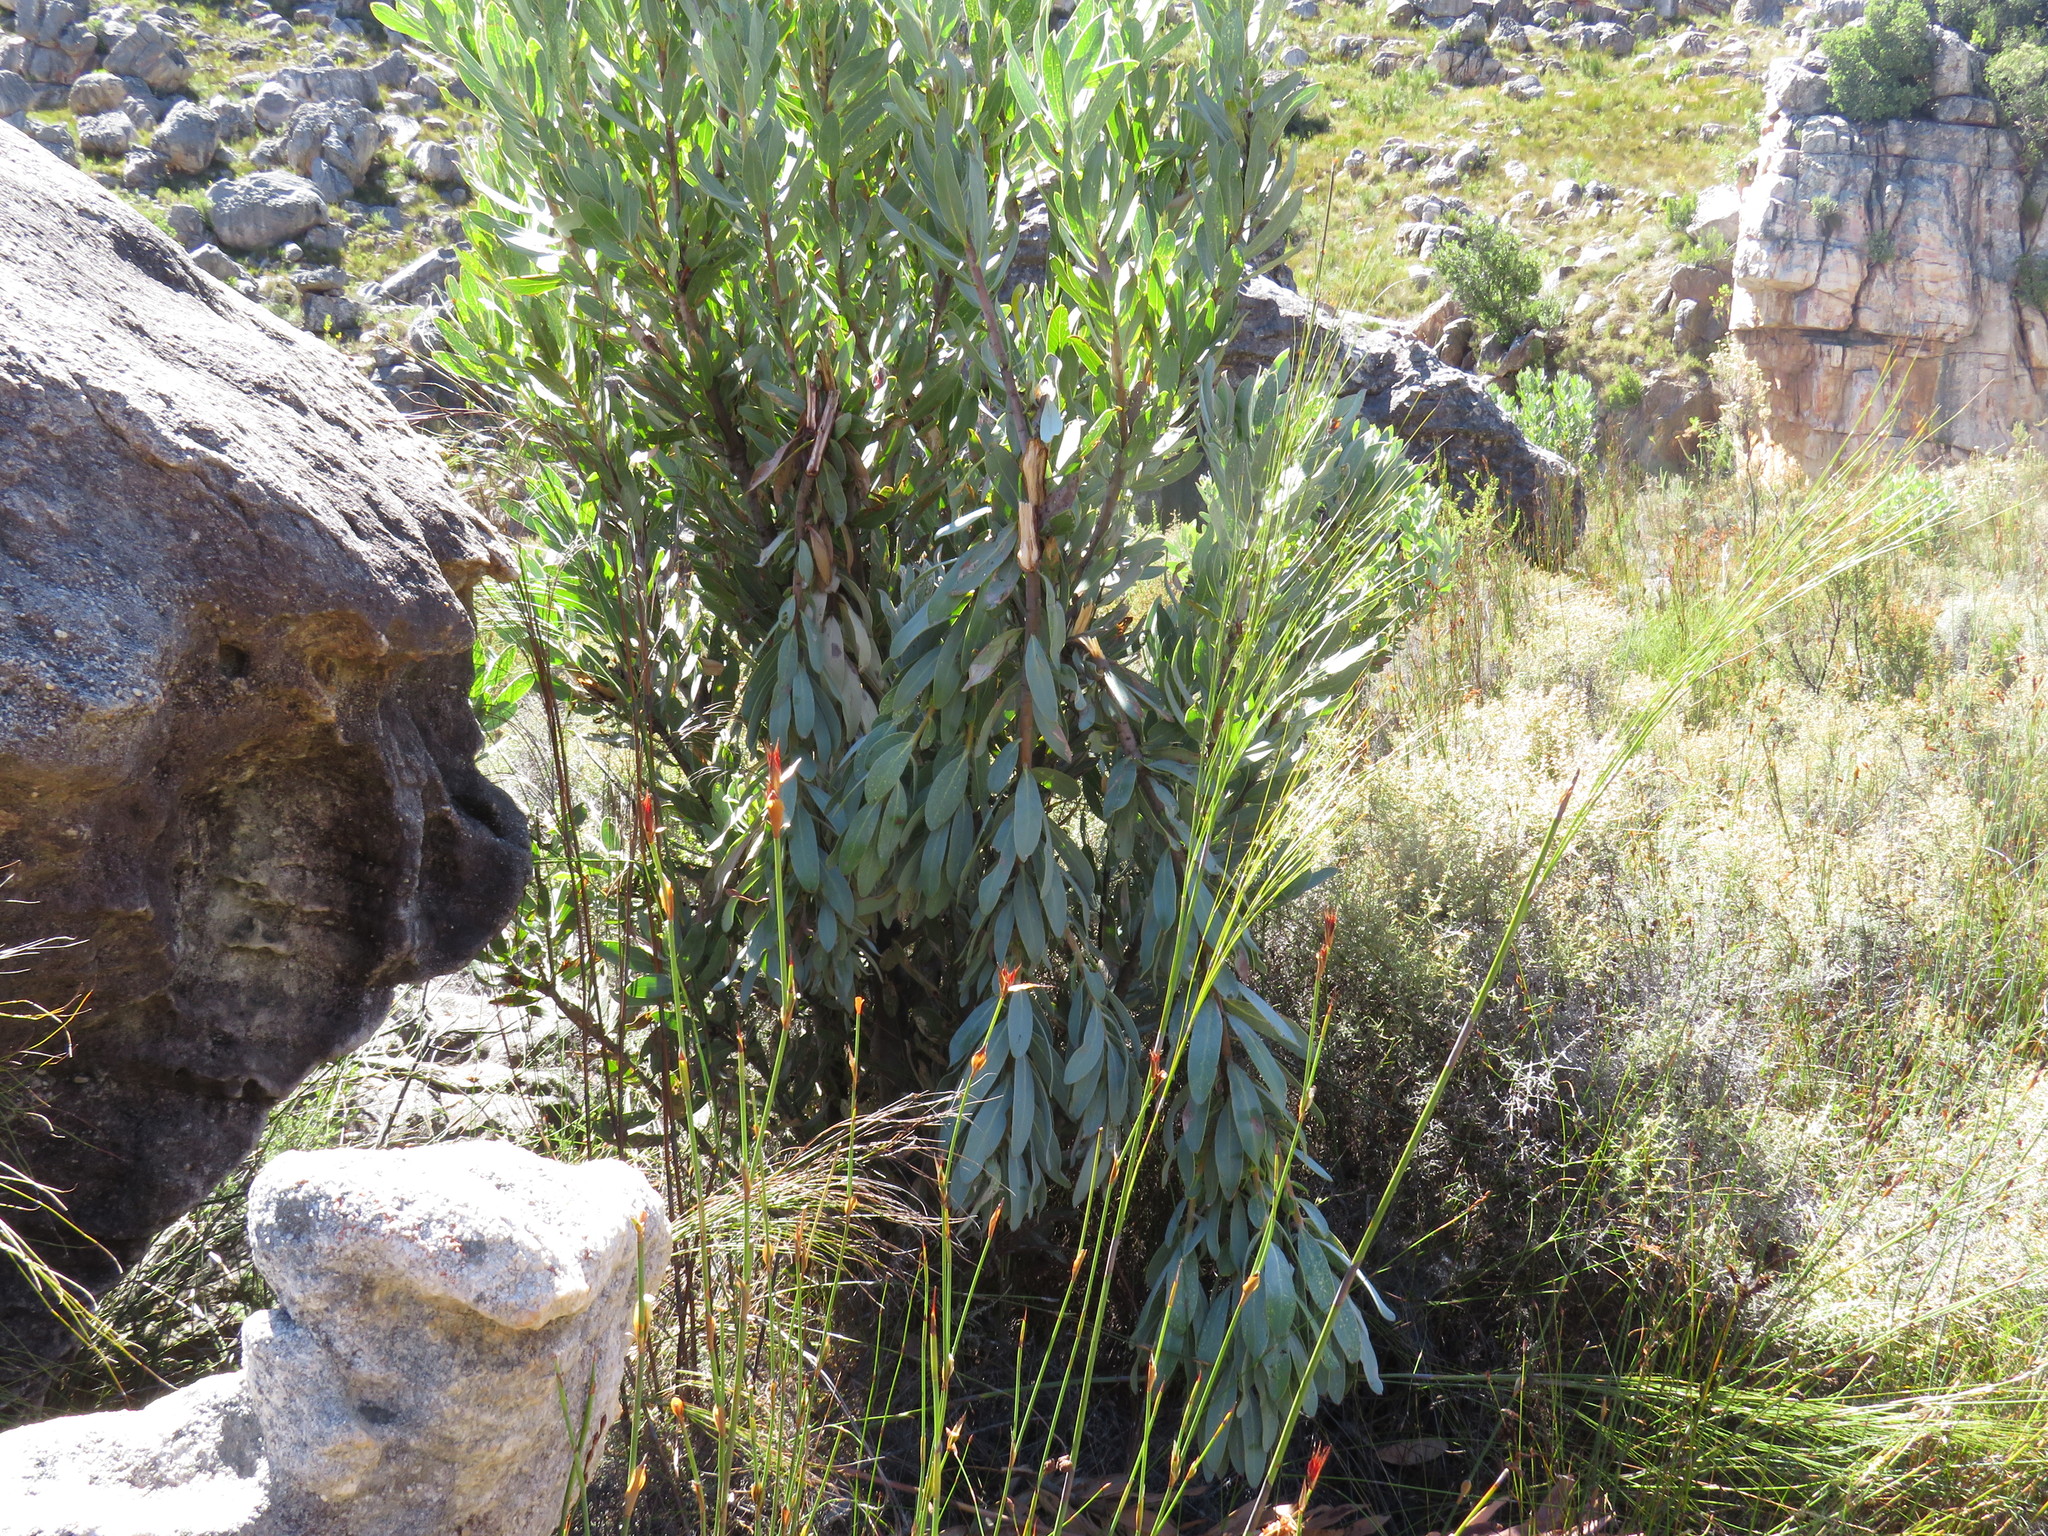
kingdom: Plantae
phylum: Tracheophyta
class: Magnoliopsida
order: Proteales
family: Proteaceae
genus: Protea
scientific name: Protea laurifolia
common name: Grey-leaf sugarbsh
